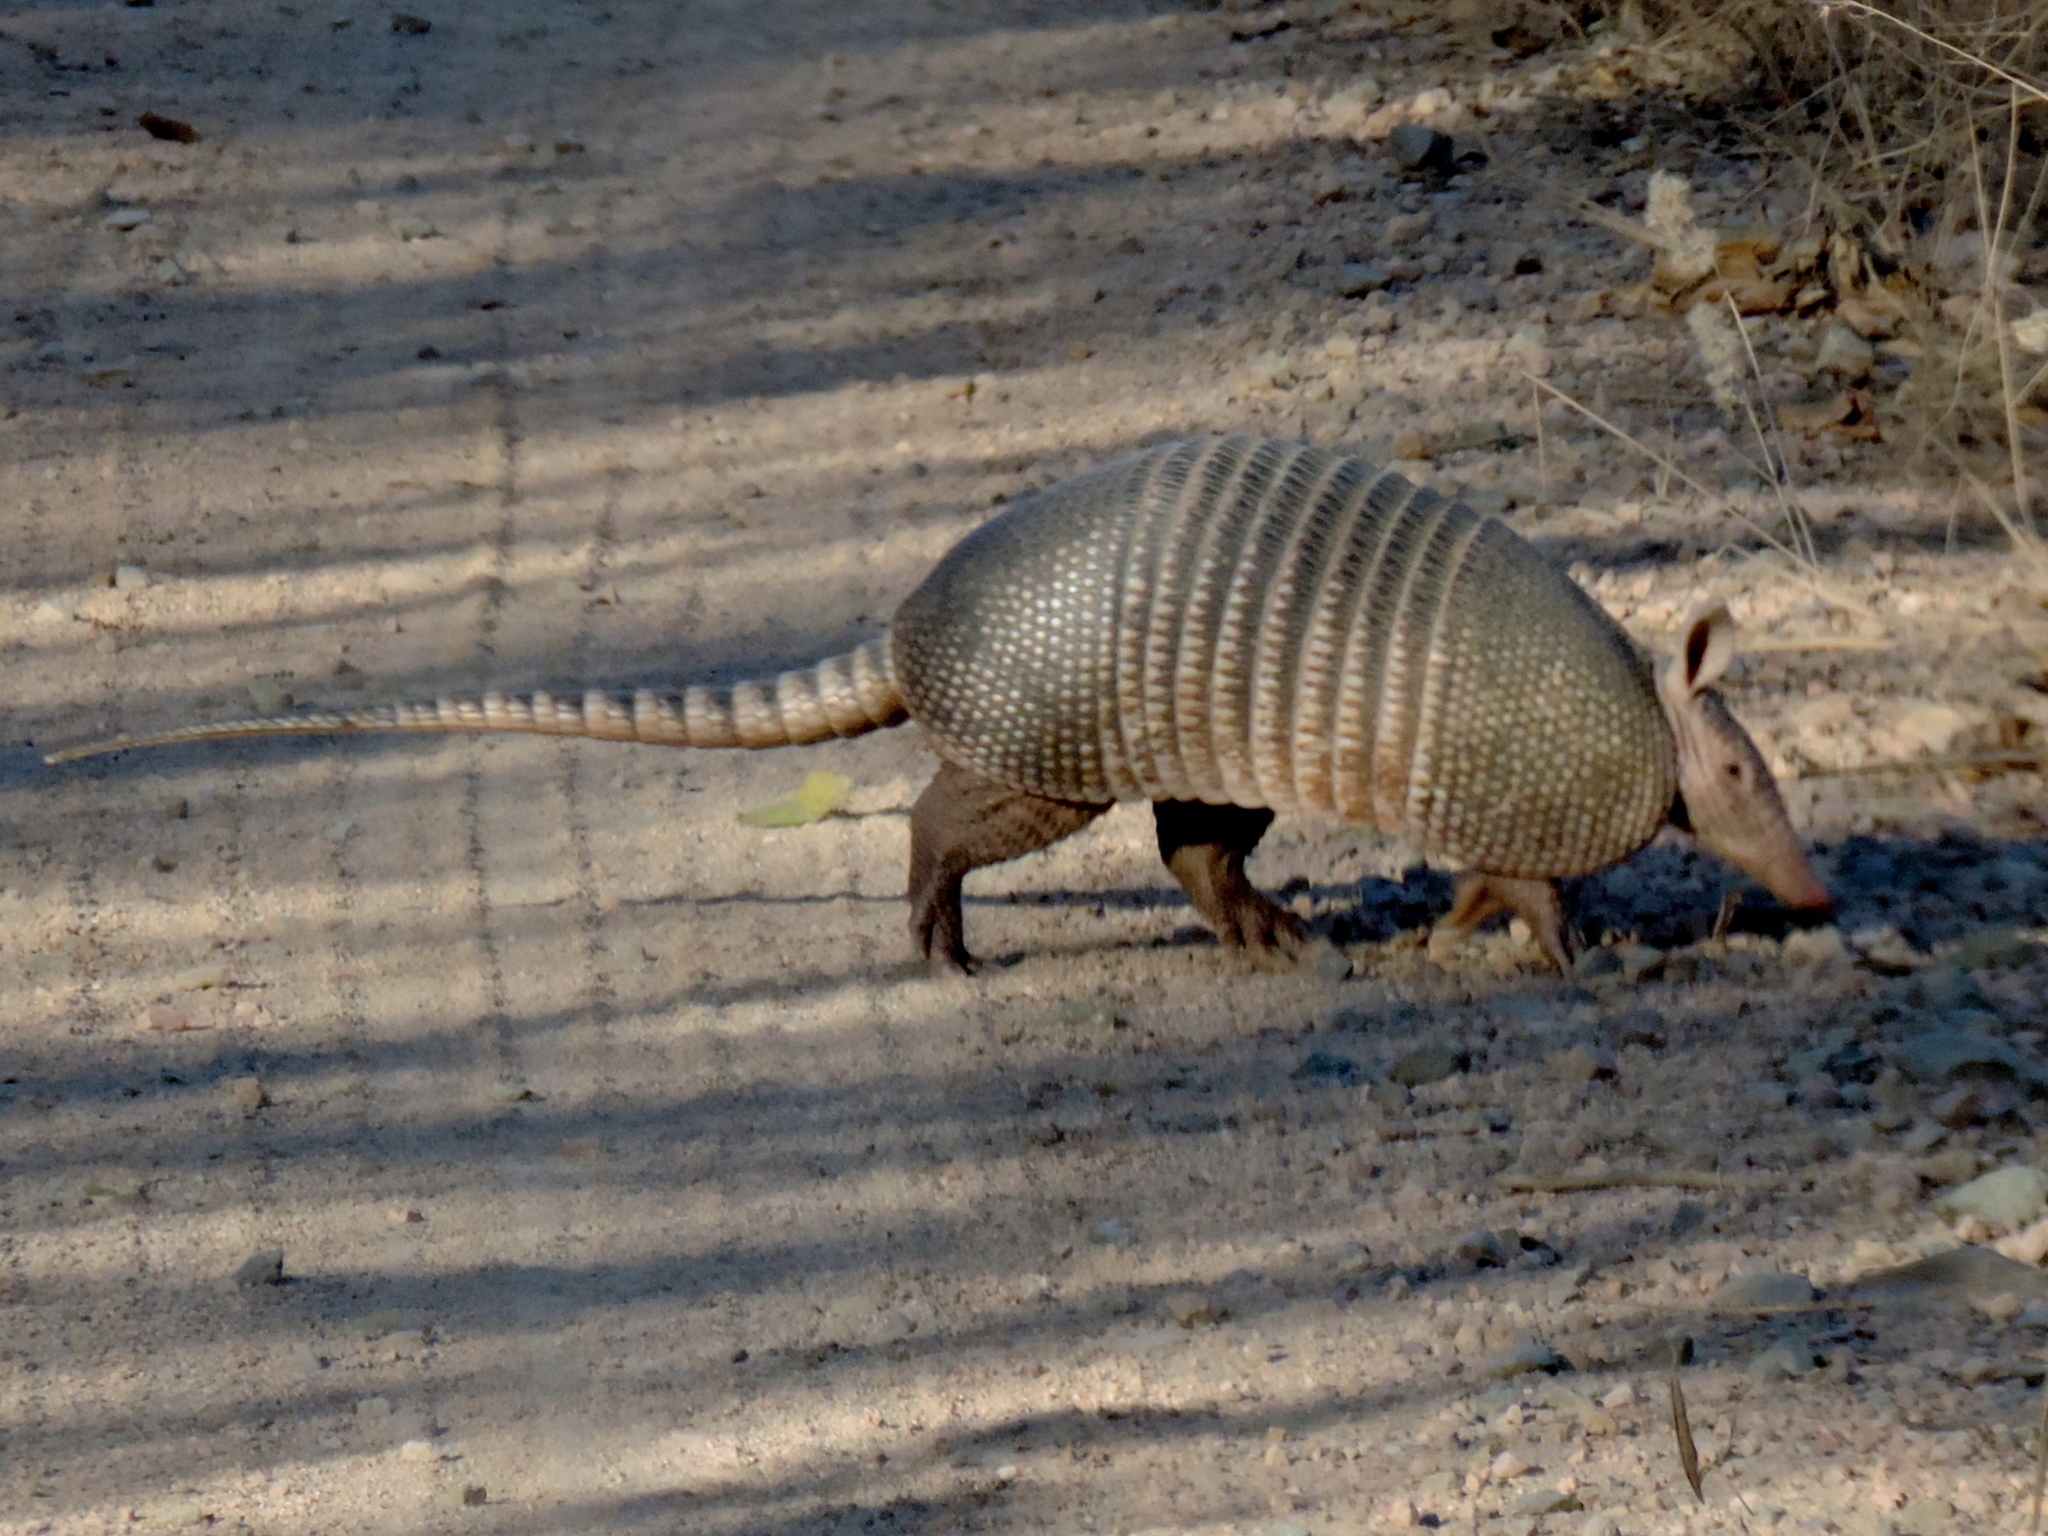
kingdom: Animalia
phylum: Chordata
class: Mammalia
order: Cingulata
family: Dasypodidae
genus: Dasypus
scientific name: Dasypus novemcinctus
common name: Nine-banded armadillo
